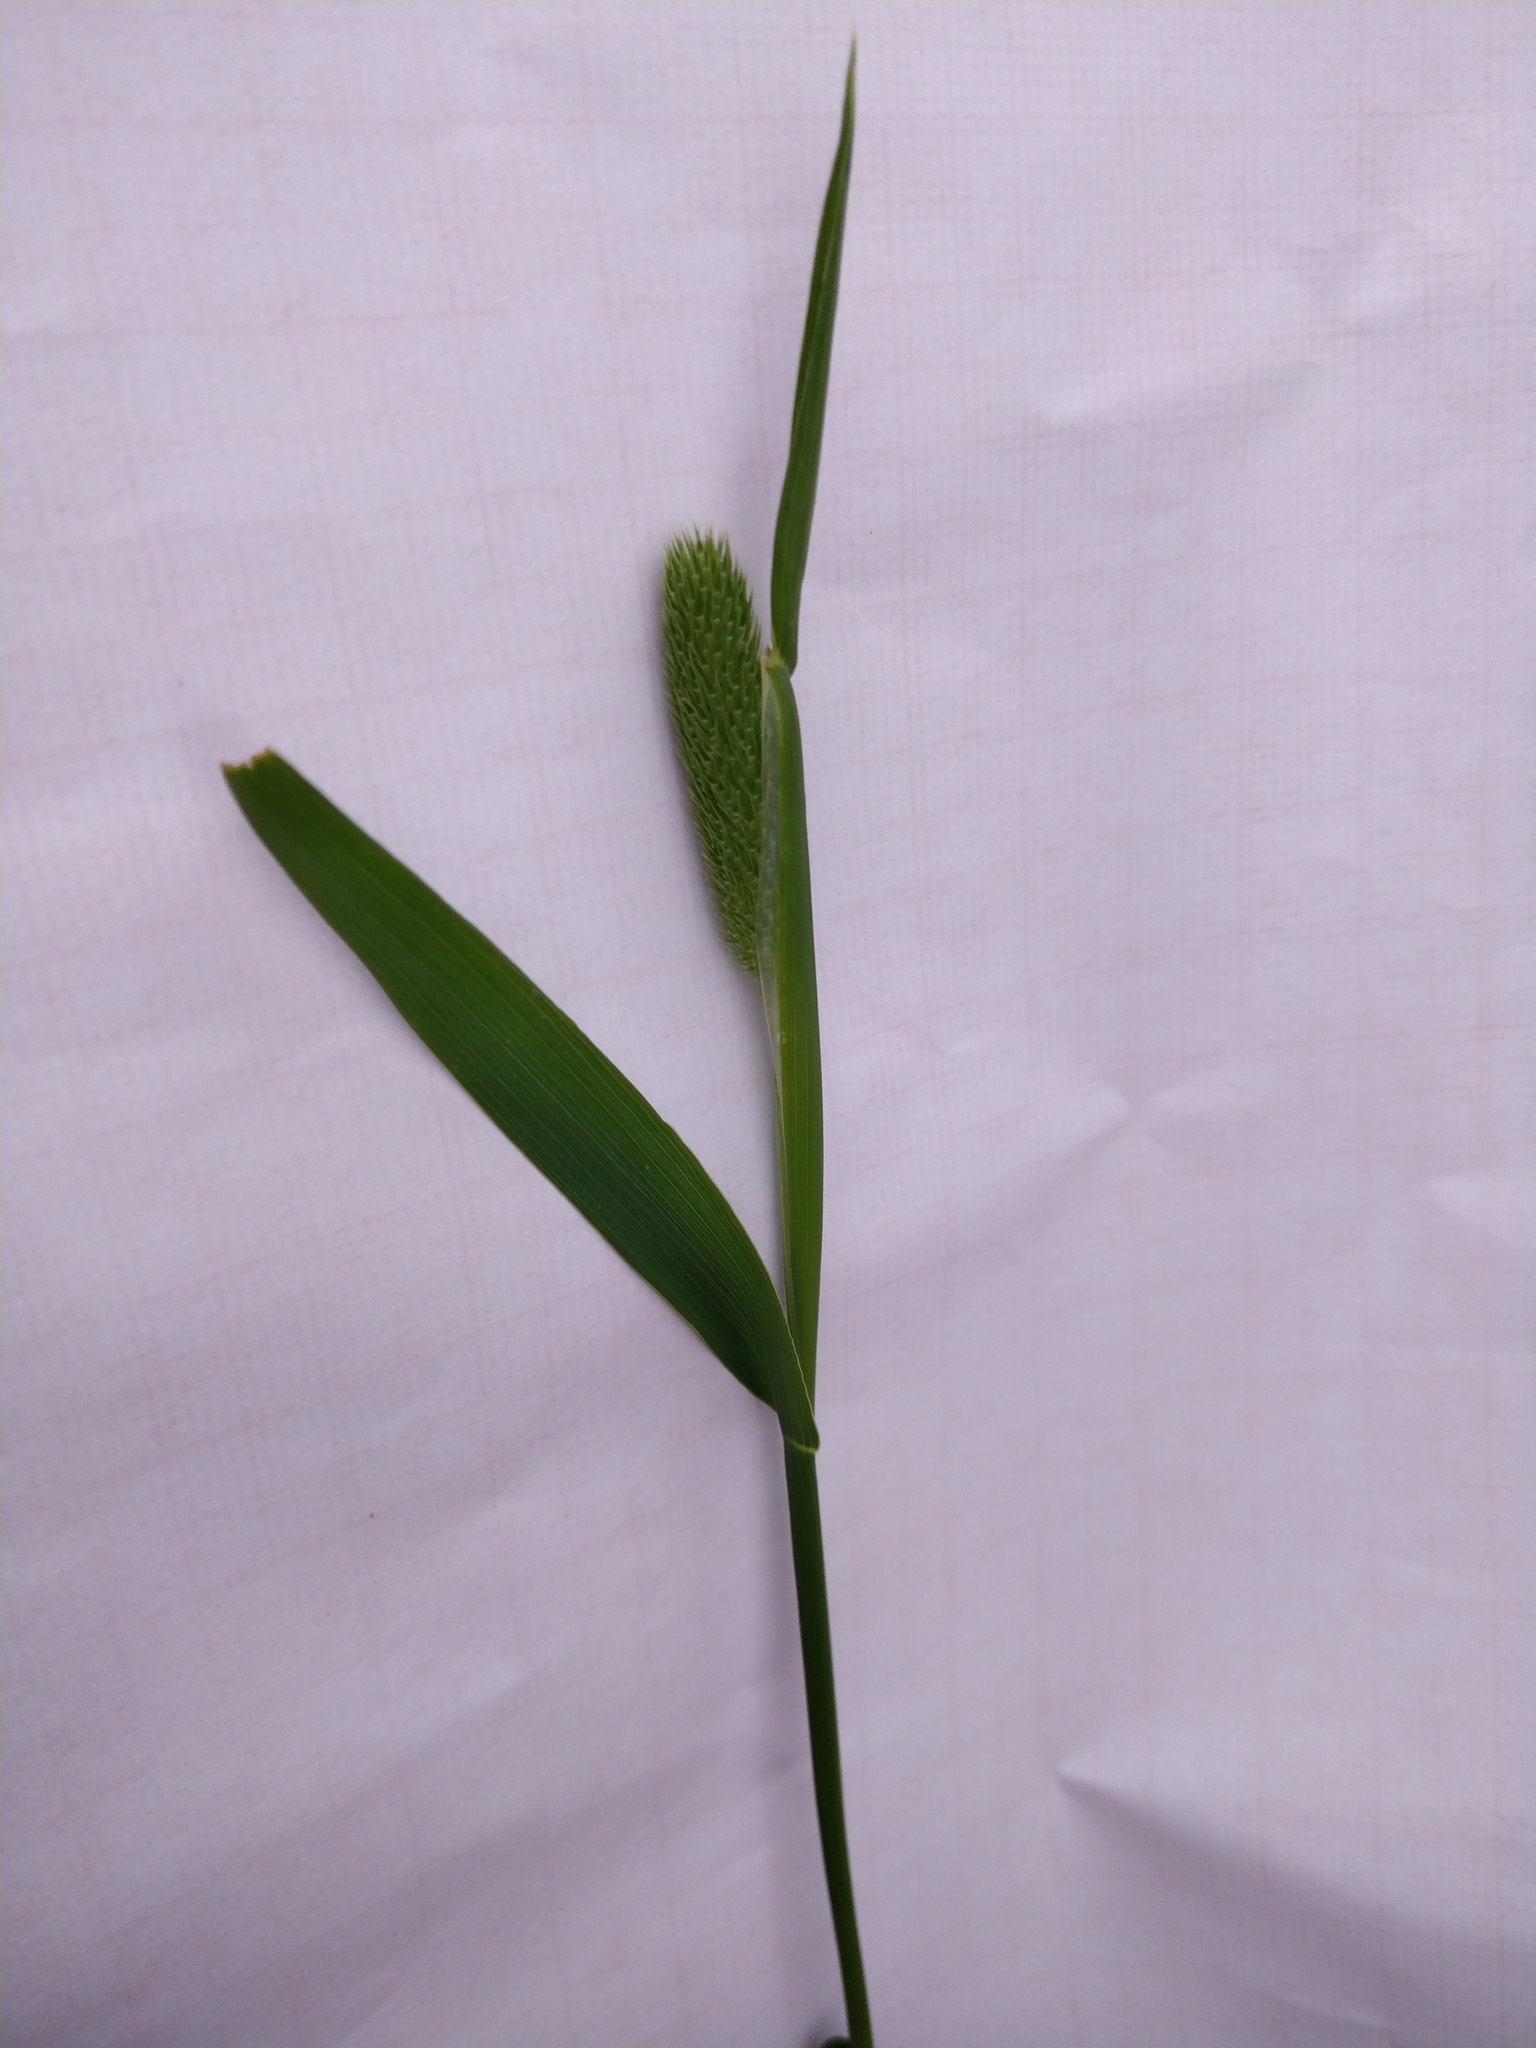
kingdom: Plantae
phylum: Tracheophyta
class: Liliopsida
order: Poales
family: Poaceae
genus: Phleum
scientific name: Phleum pratense
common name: Timothy grass
